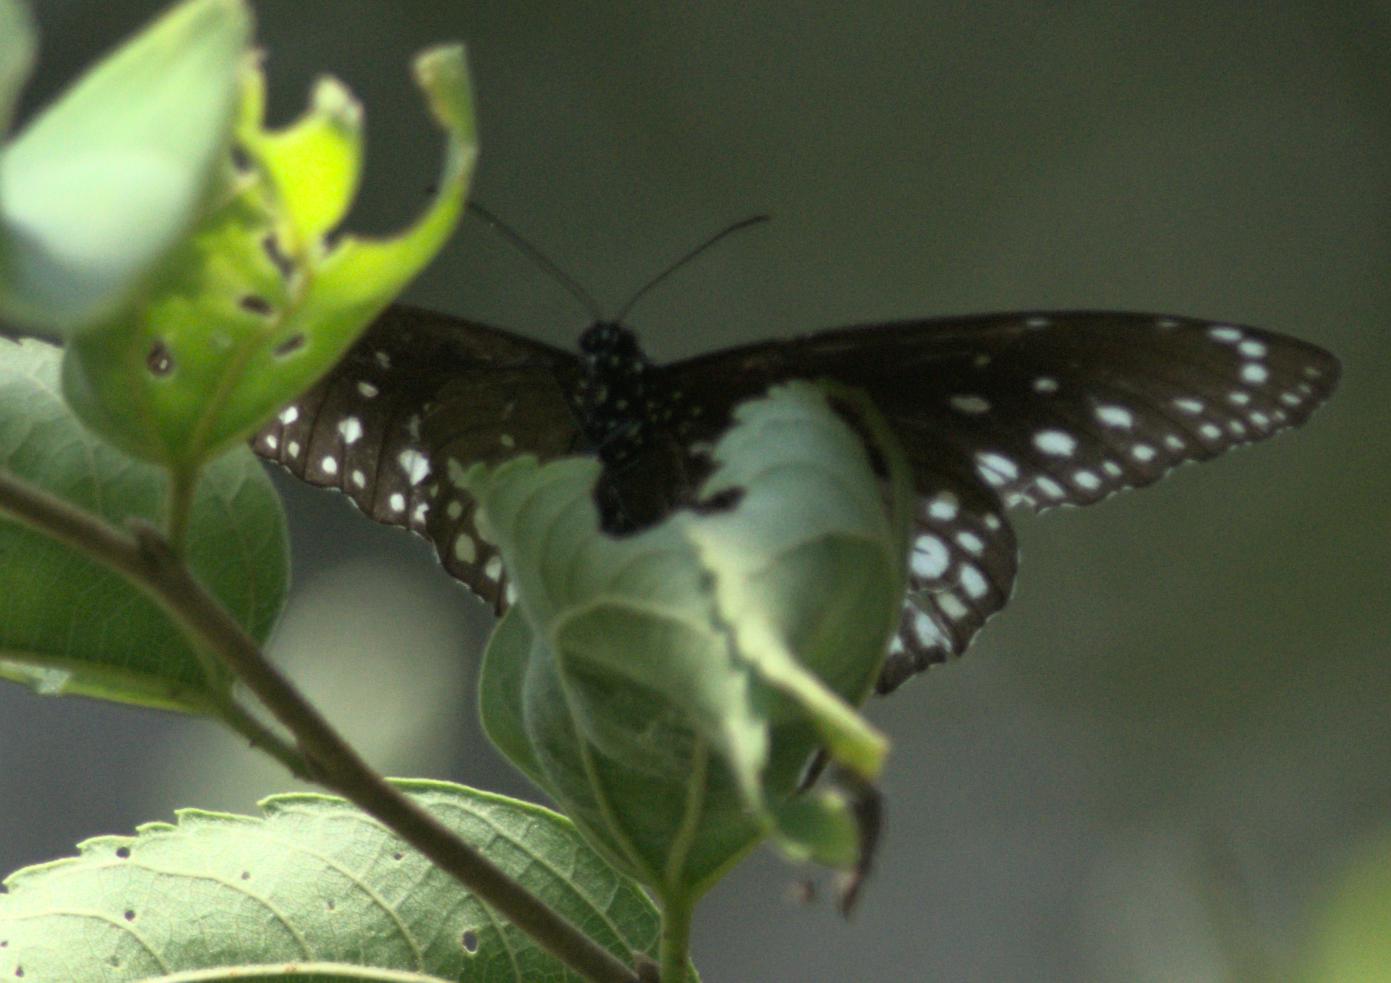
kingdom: Animalia
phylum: Arthropoda
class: Insecta
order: Lepidoptera
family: Nymphalidae
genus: Euploea
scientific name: Euploea core
